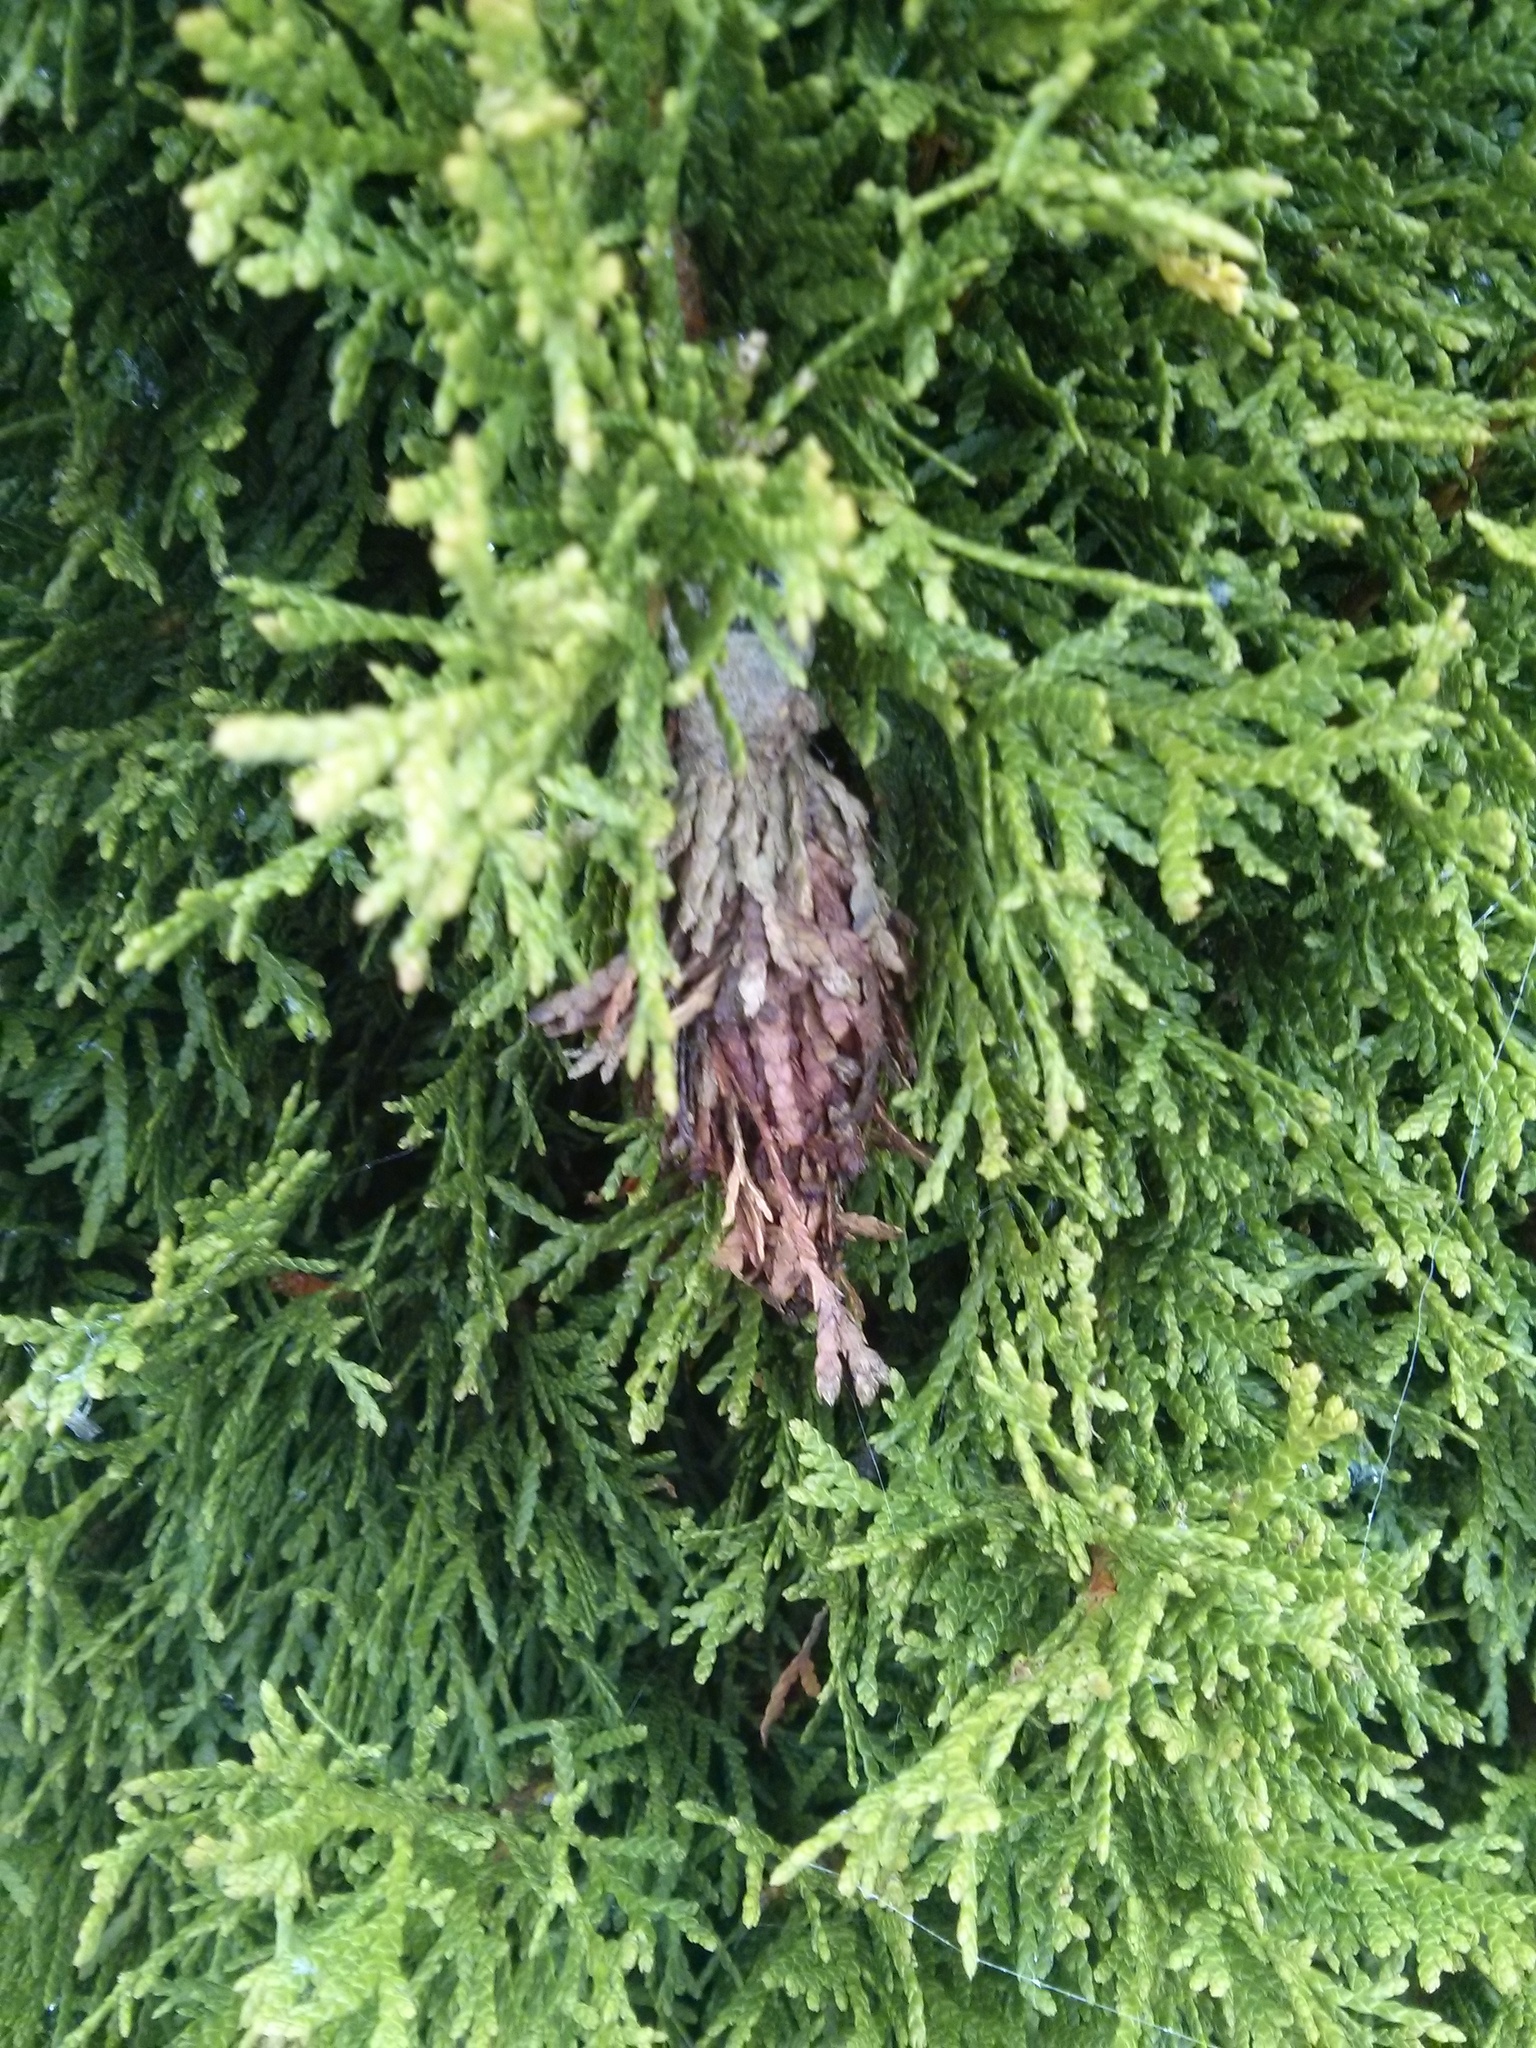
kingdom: Animalia
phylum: Arthropoda
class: Insecta
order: Lepidoptera
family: Psychidae
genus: Thyridopteryx
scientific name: Thyridopteryx ephemeraeformis
